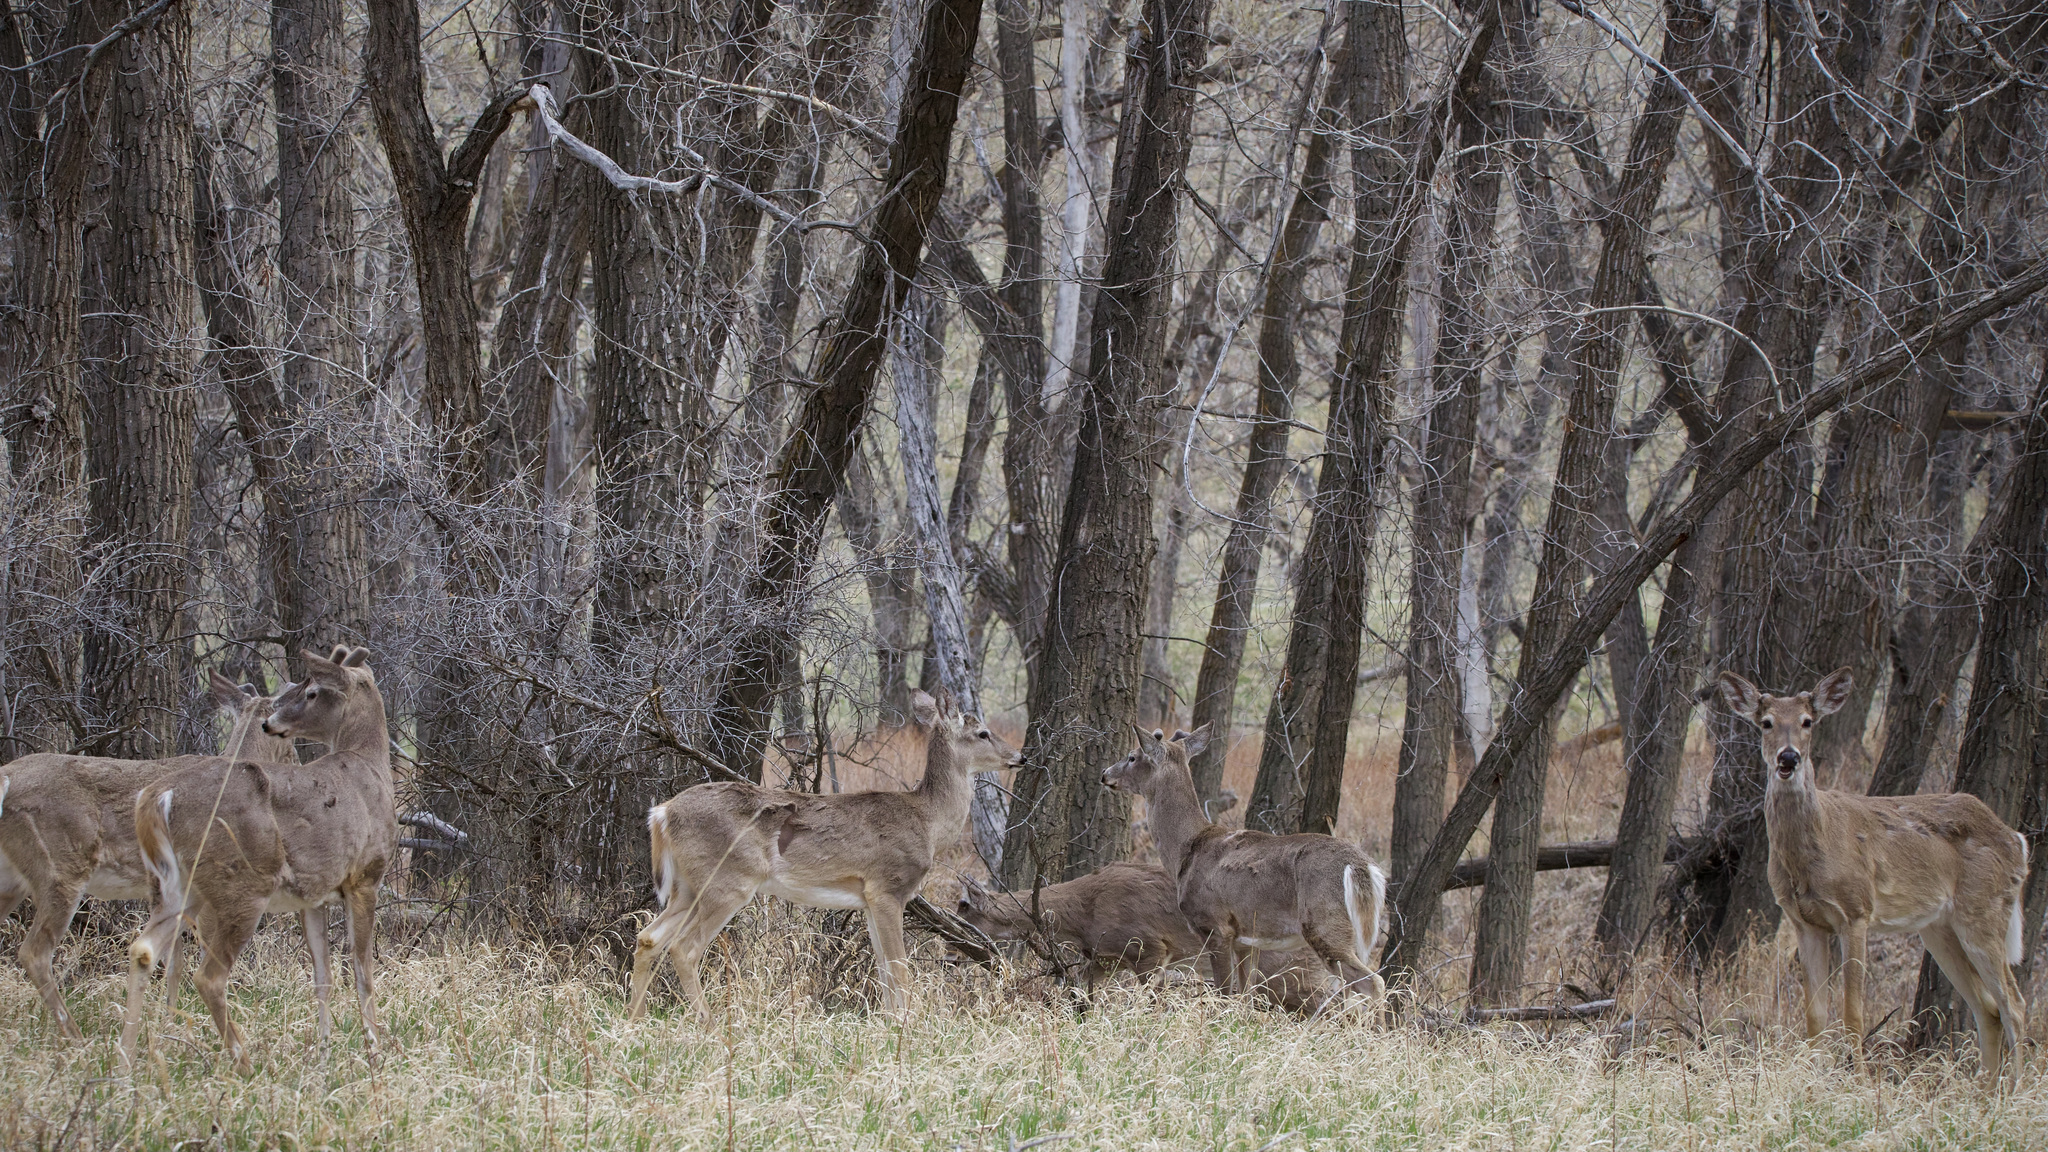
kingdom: Animalia
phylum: Chordata
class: Mammalia
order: Artiodactyla
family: Cervidae
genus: Odocoileus
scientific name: Odocoileus virginianus
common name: White-tailed deer
